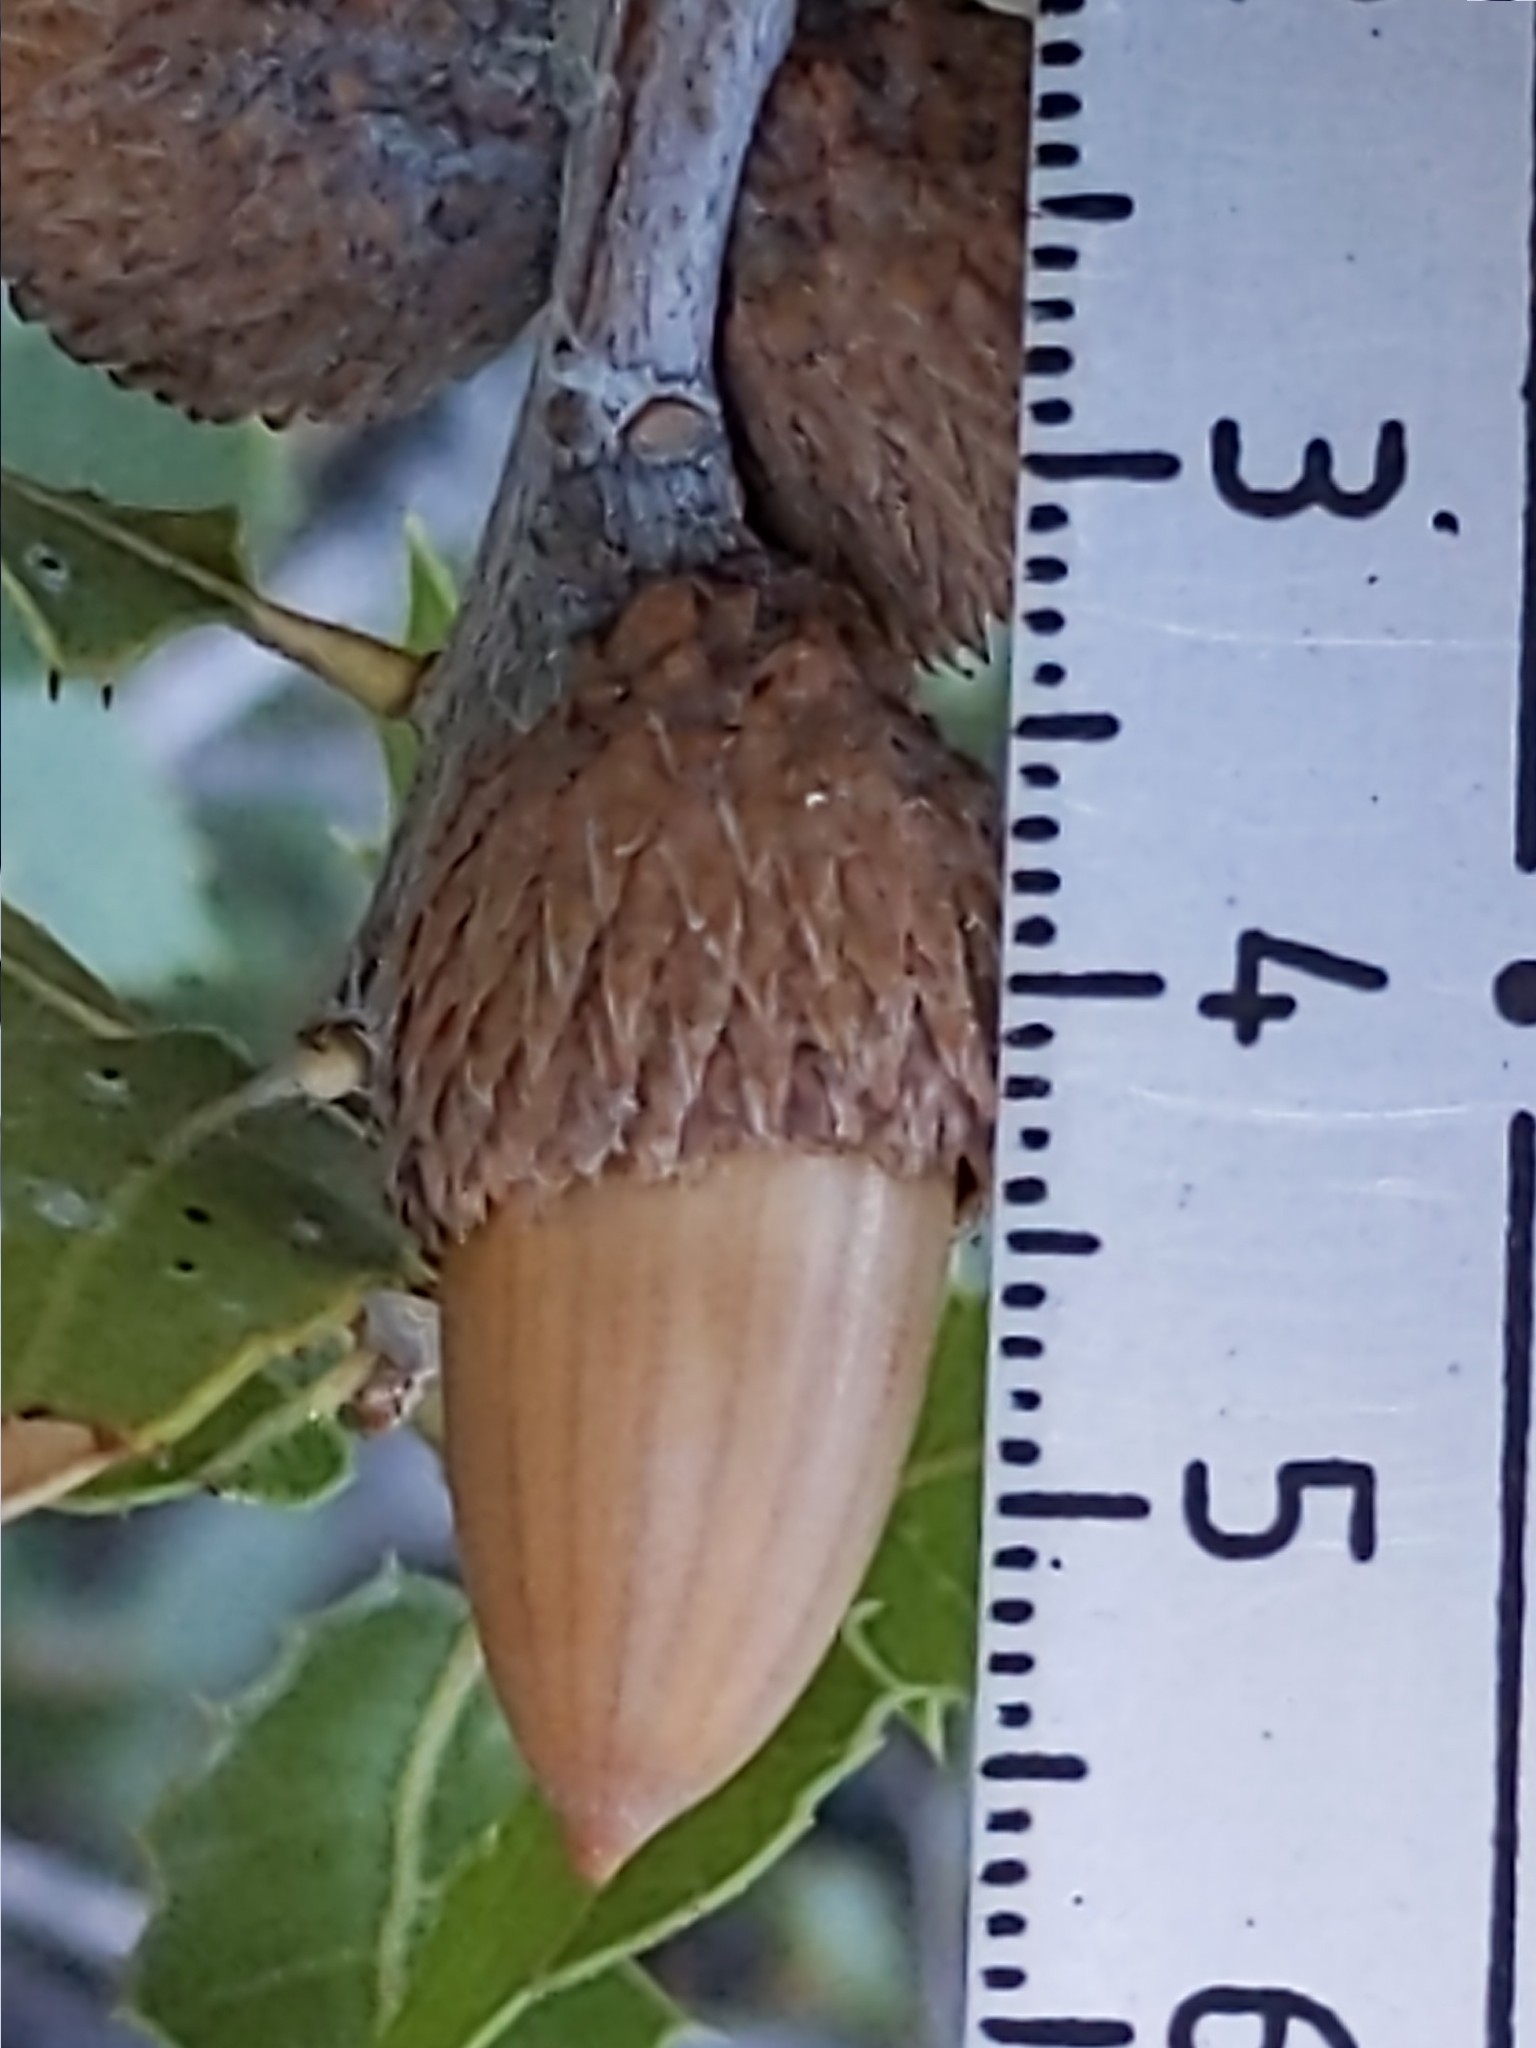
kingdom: Plantae
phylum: Tracheophyta
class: Magnoliopsida
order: Fagales
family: Fagaceae
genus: Quercus
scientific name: Quercus wislizeni
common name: Interior live oak
